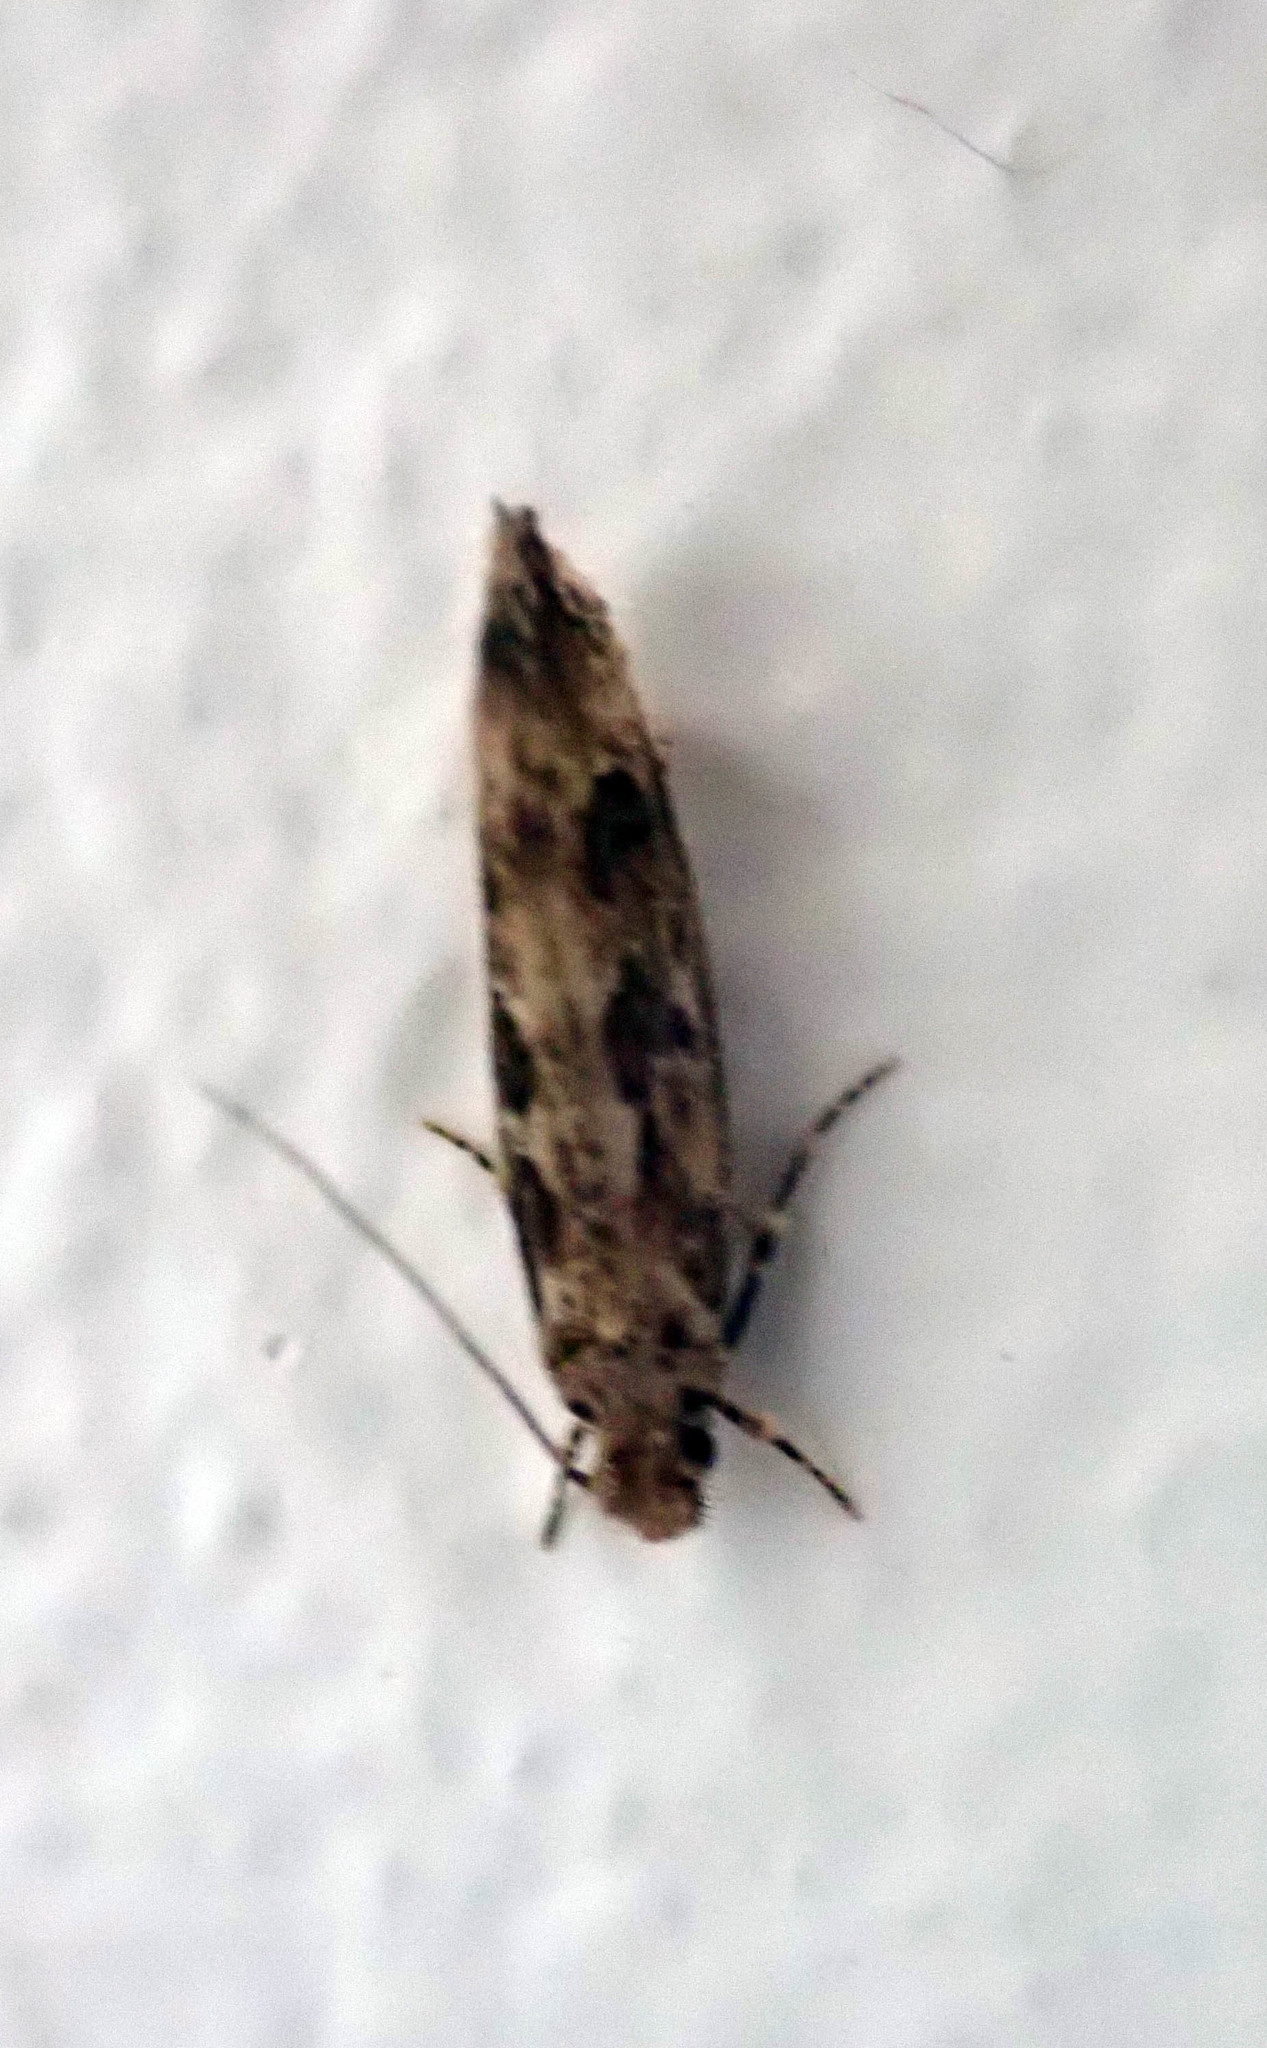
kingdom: Animalia
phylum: Arthropoda
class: Insecta
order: Lepidoptera
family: Tineidae
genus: Erechthias
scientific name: Erechthias capnitis
